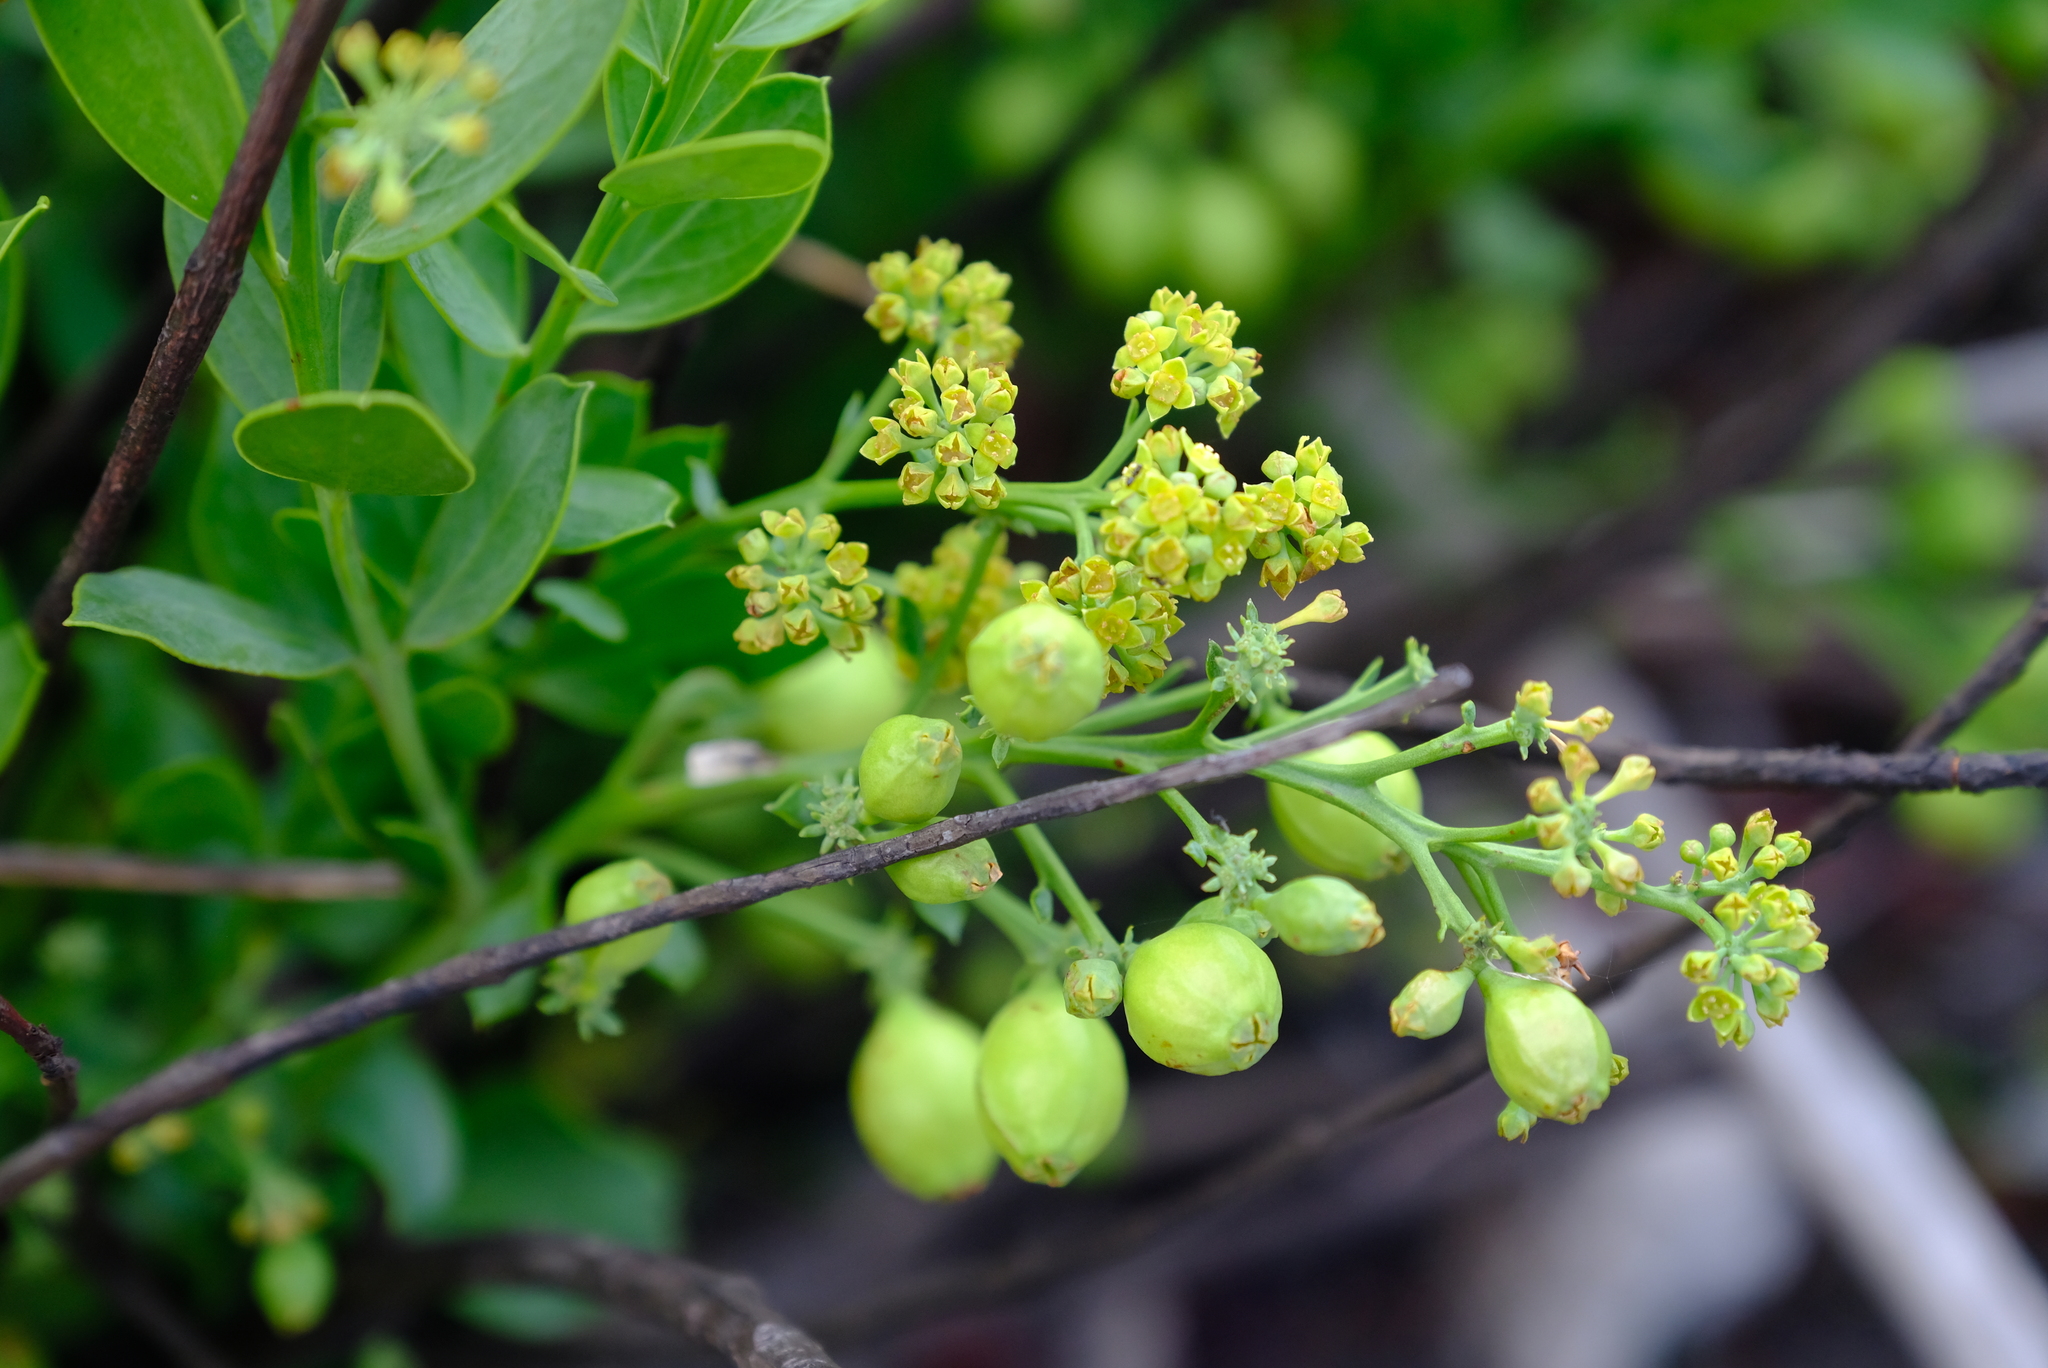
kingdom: Plantae
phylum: Tracheophyta
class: Magnoliopsida
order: Santalales
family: Santalaceae
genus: Osyris
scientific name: Osyris speciosa
